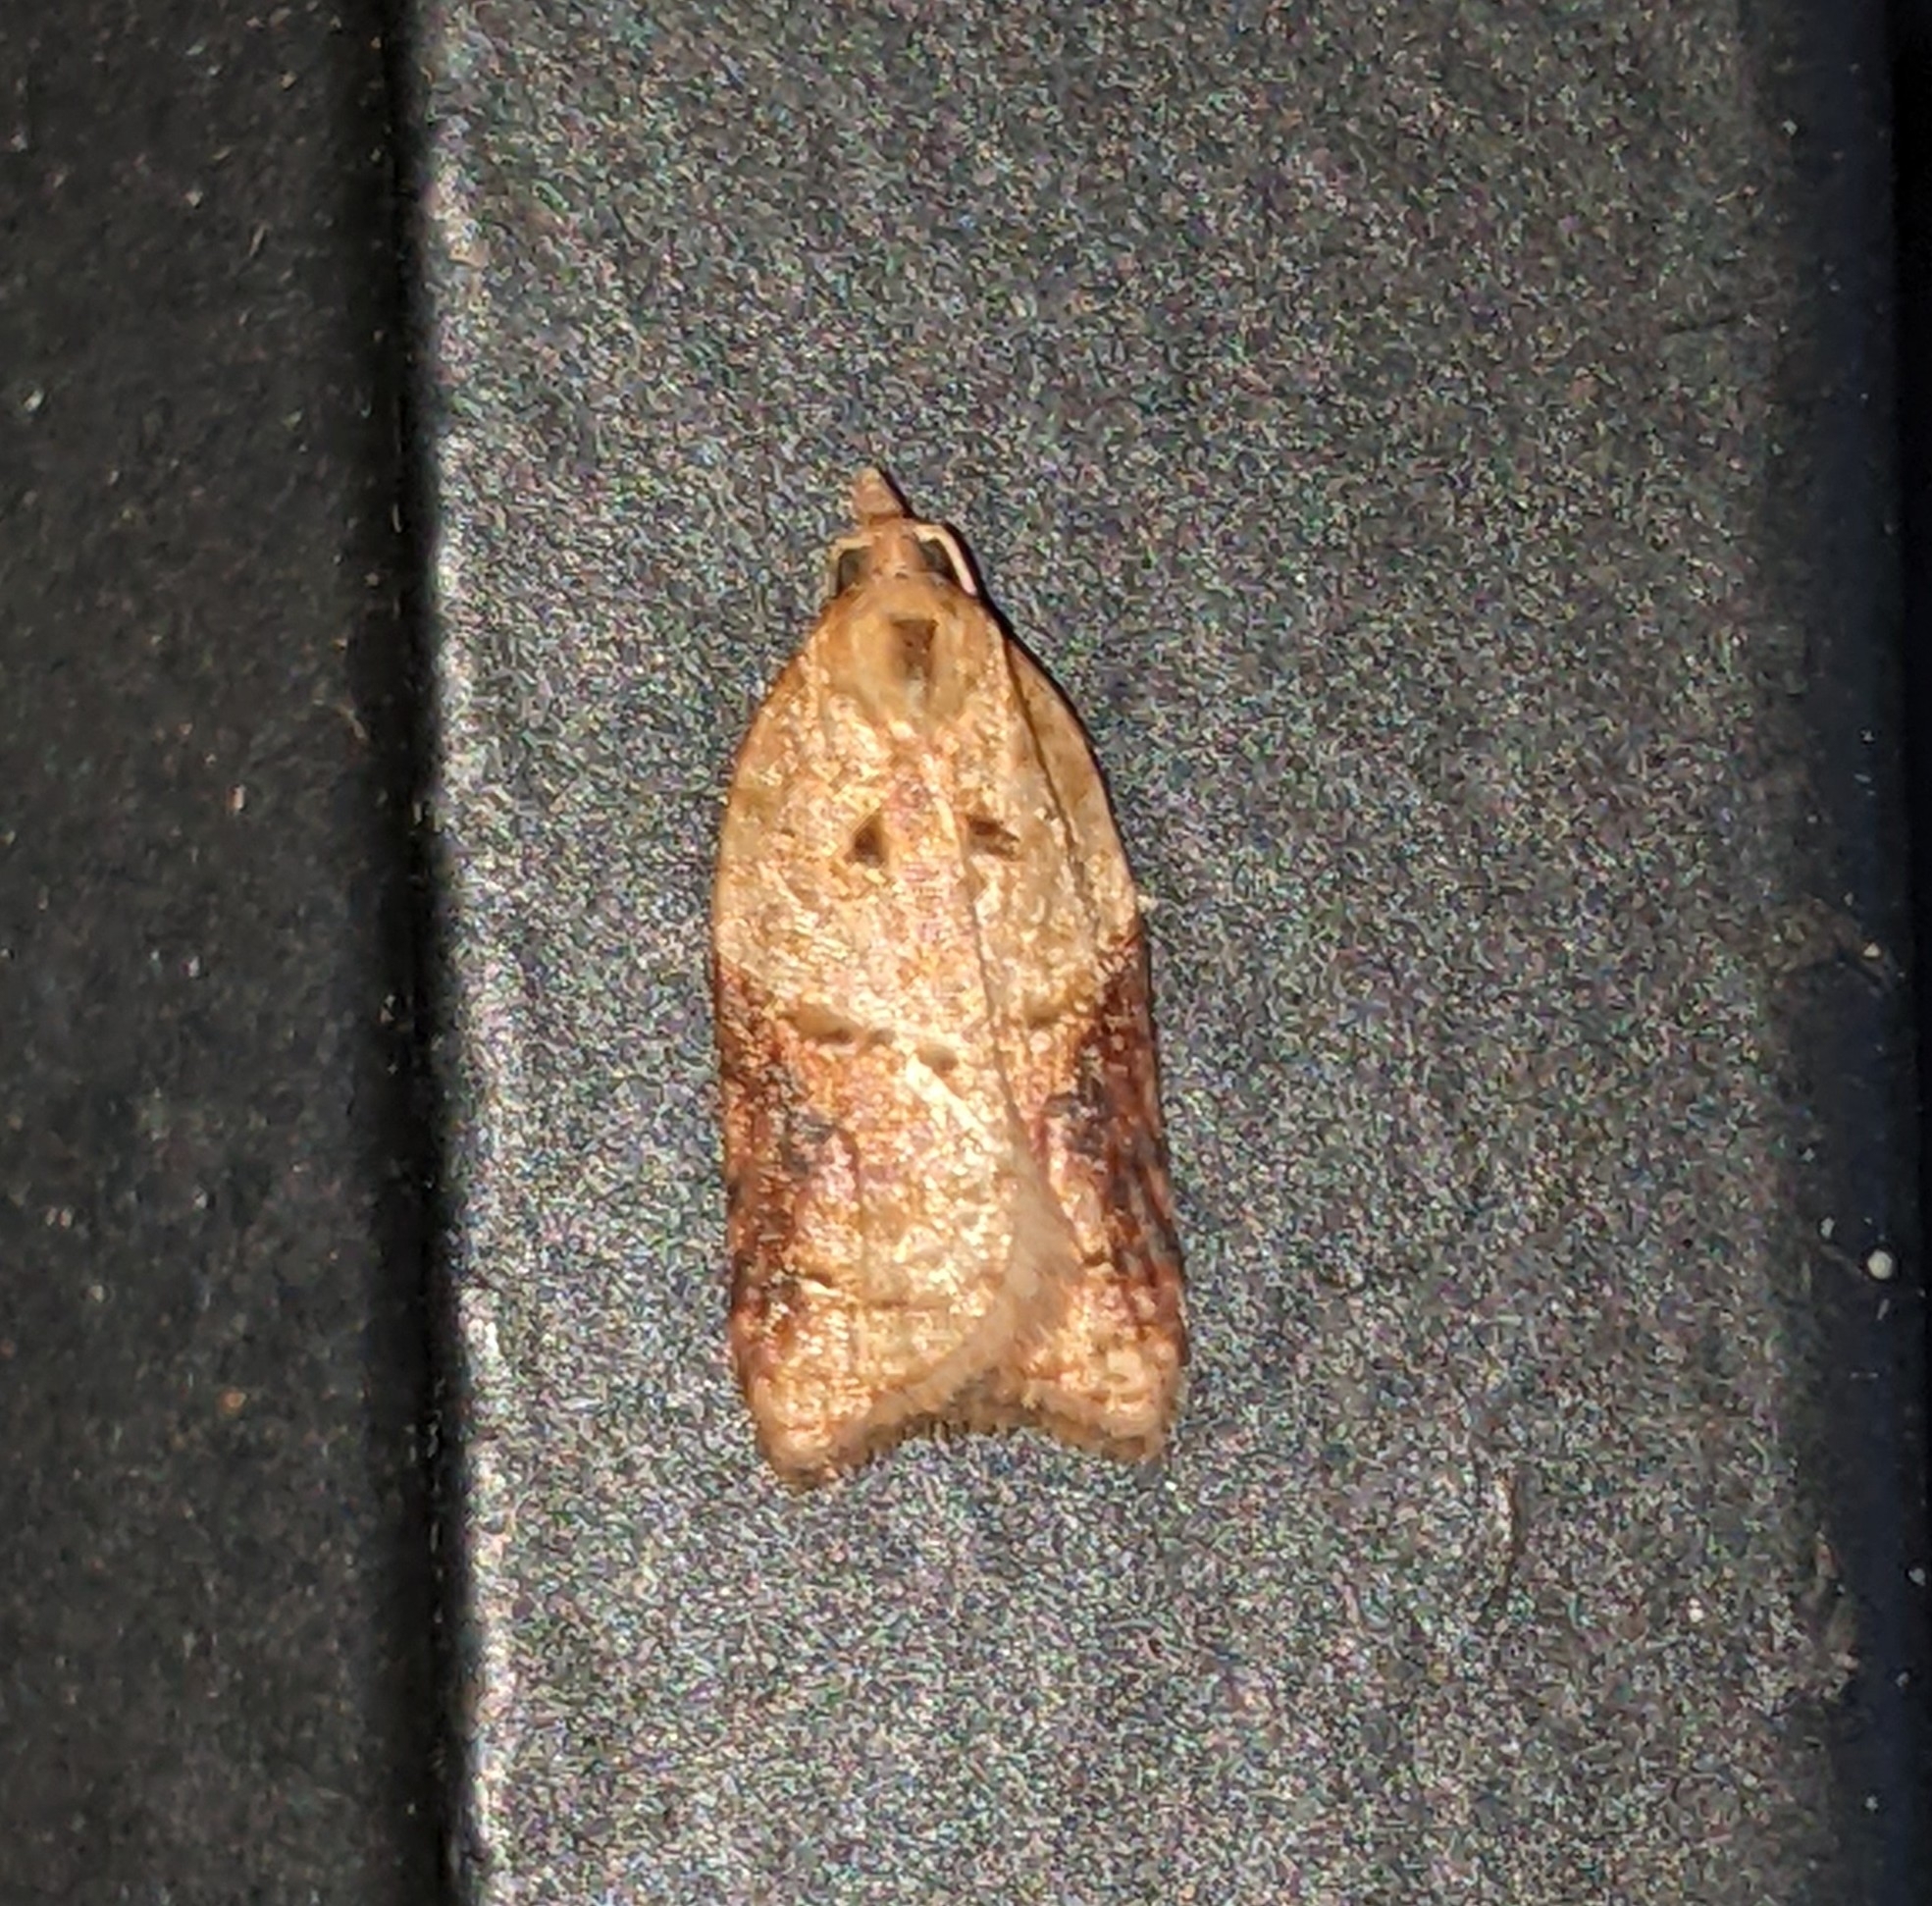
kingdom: Animalia
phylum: Arthropoda
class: Insecta
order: Lepidoptera
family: Tortricidae
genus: Acleris
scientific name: Acleris maccana
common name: Marbled button
